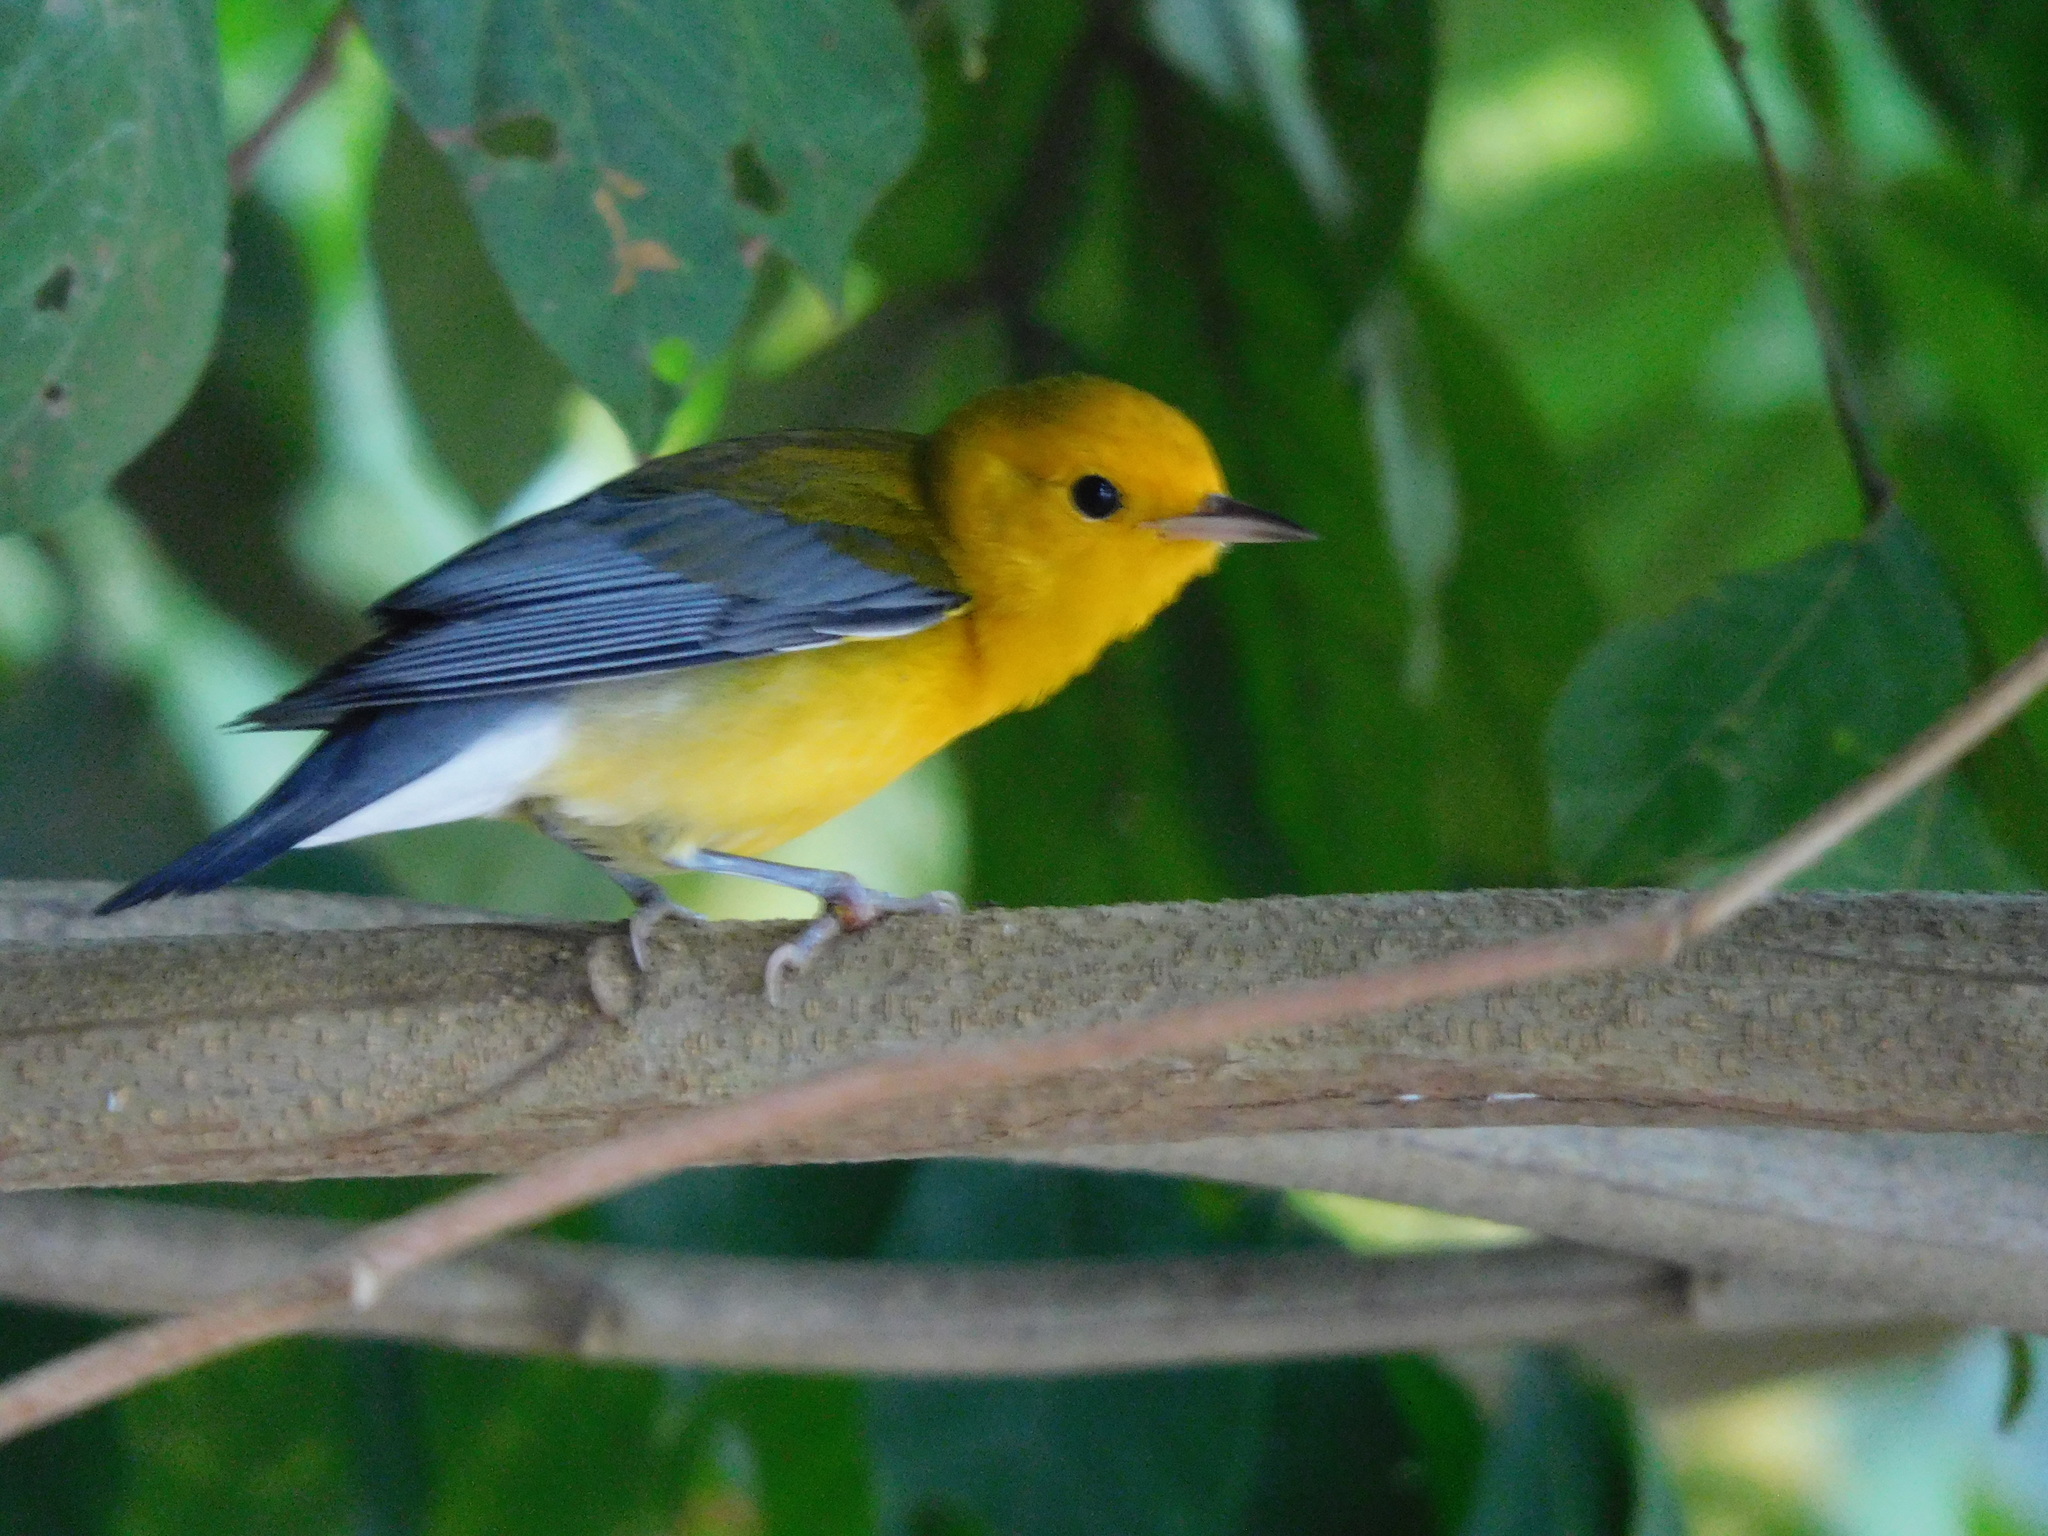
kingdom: Animalia
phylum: Chordata
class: Aves
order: Passeriformes
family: Parulidae
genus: Protonotaria
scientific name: Protonotaria citrea
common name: Prothonotary warbler
